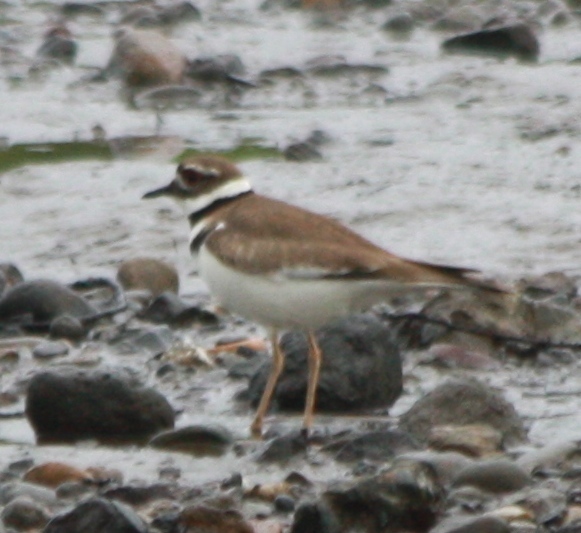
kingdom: Animalia
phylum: Chordata
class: Aves
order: Charadriiformes
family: Charadriidae
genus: Charadrius
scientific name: Charadrius vociferus
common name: Killdeer
